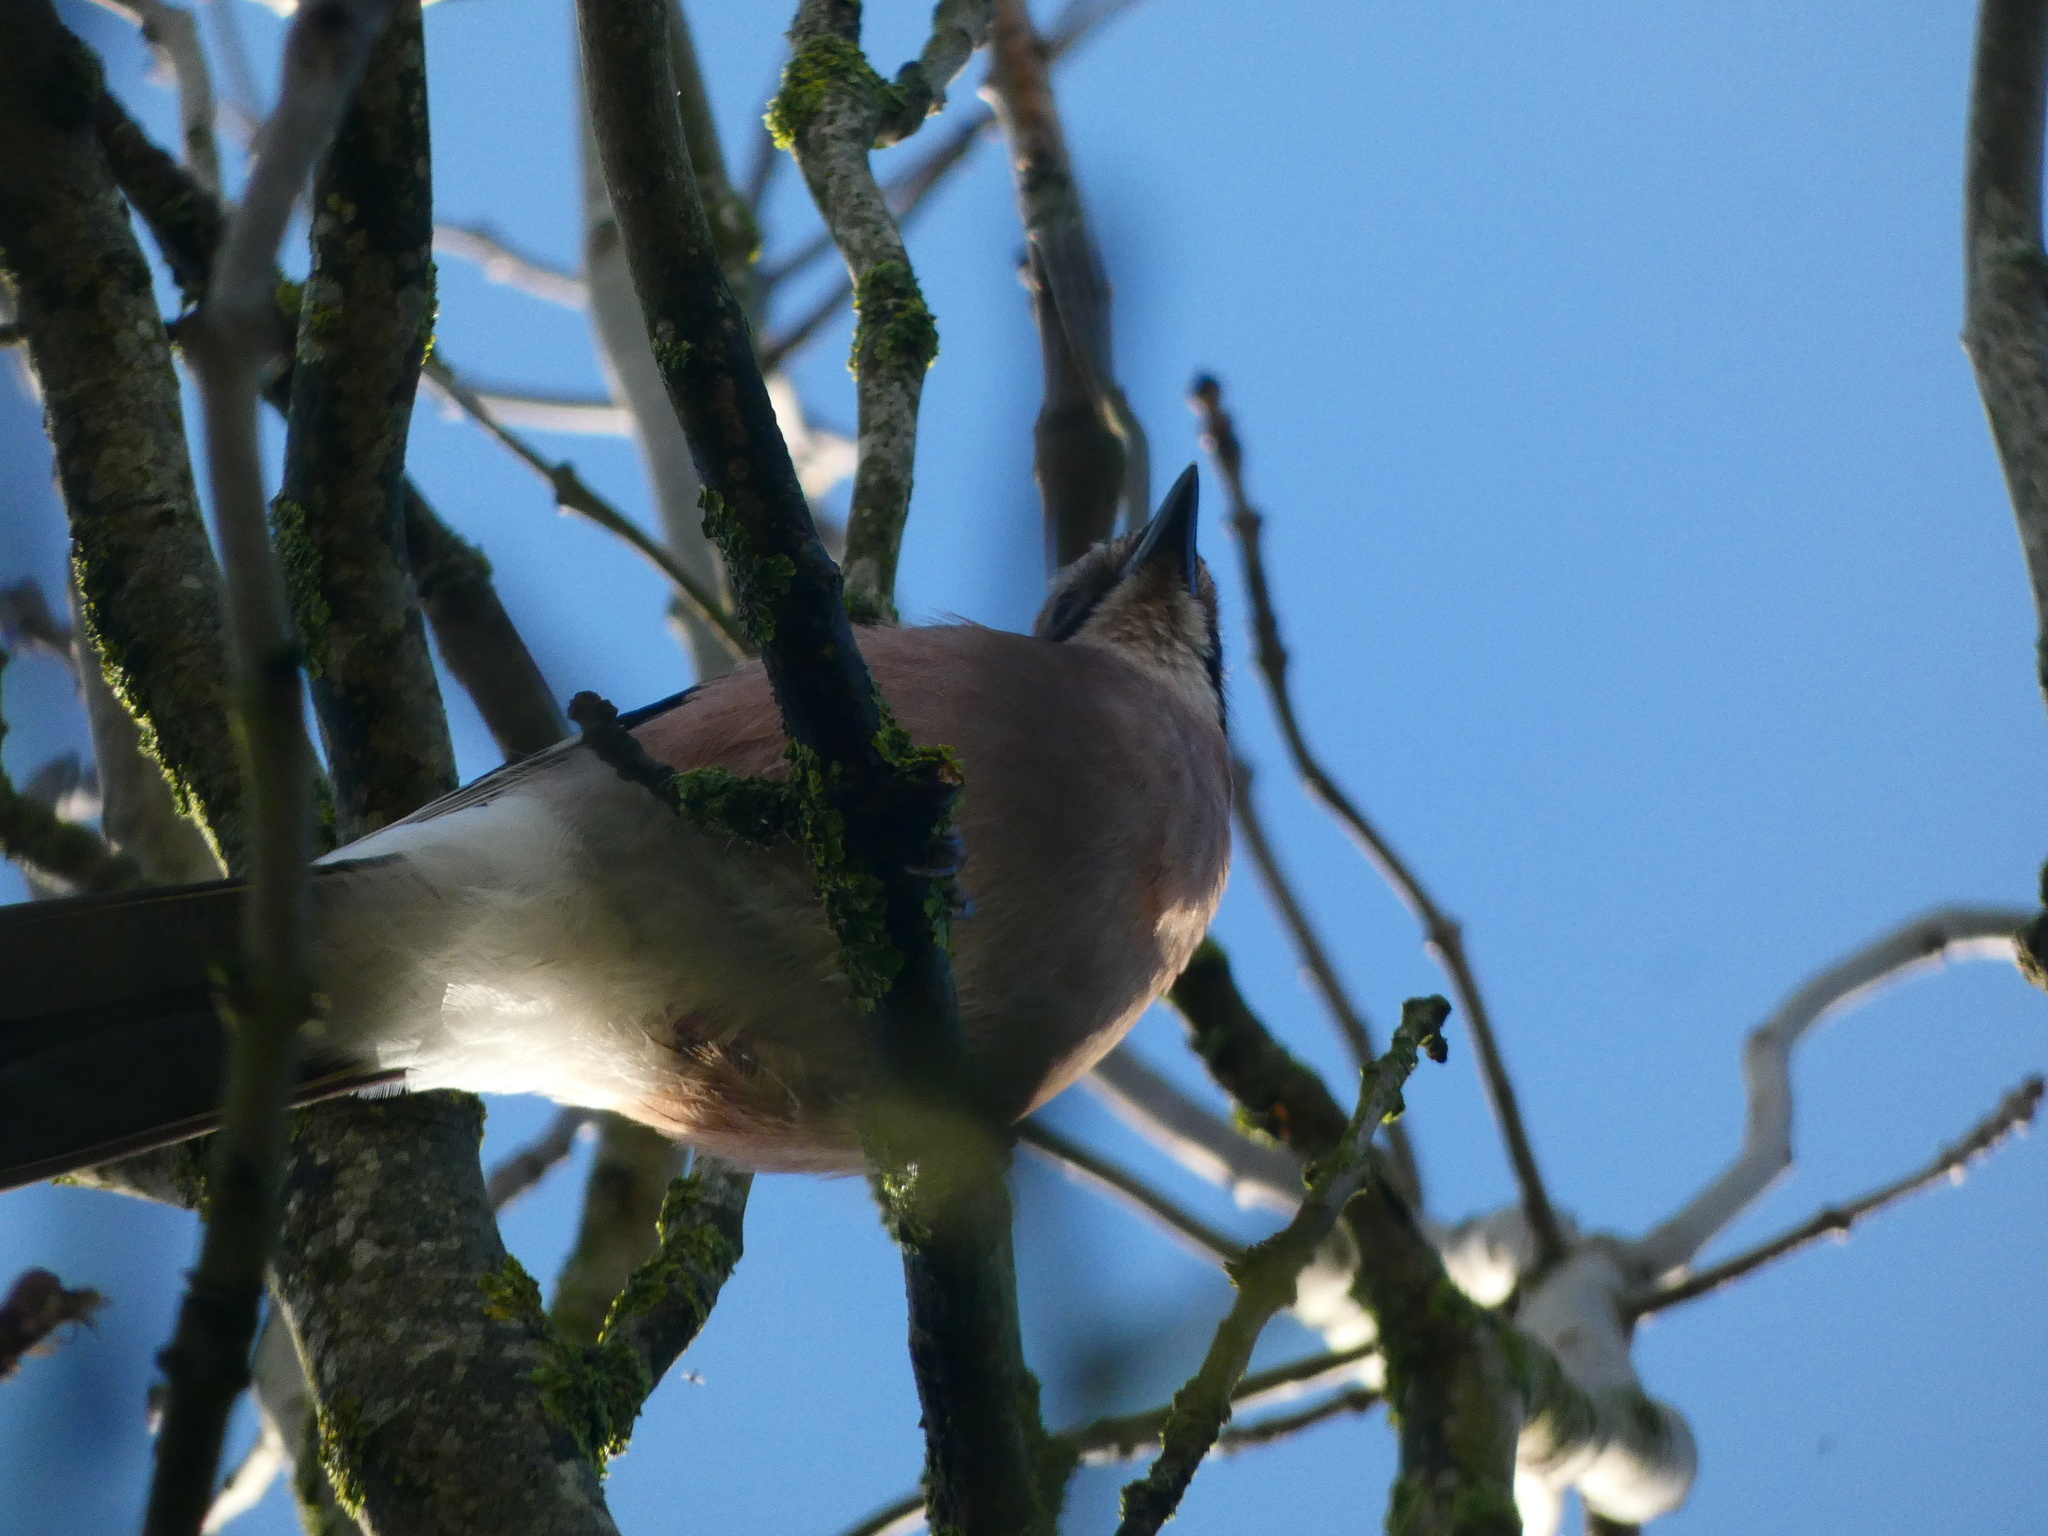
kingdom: Animalia
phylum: Chordata
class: Aves
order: Passeriformes
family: Corvidae
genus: Garrulus
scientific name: Garrulus glandarius
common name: Eurasian jay
